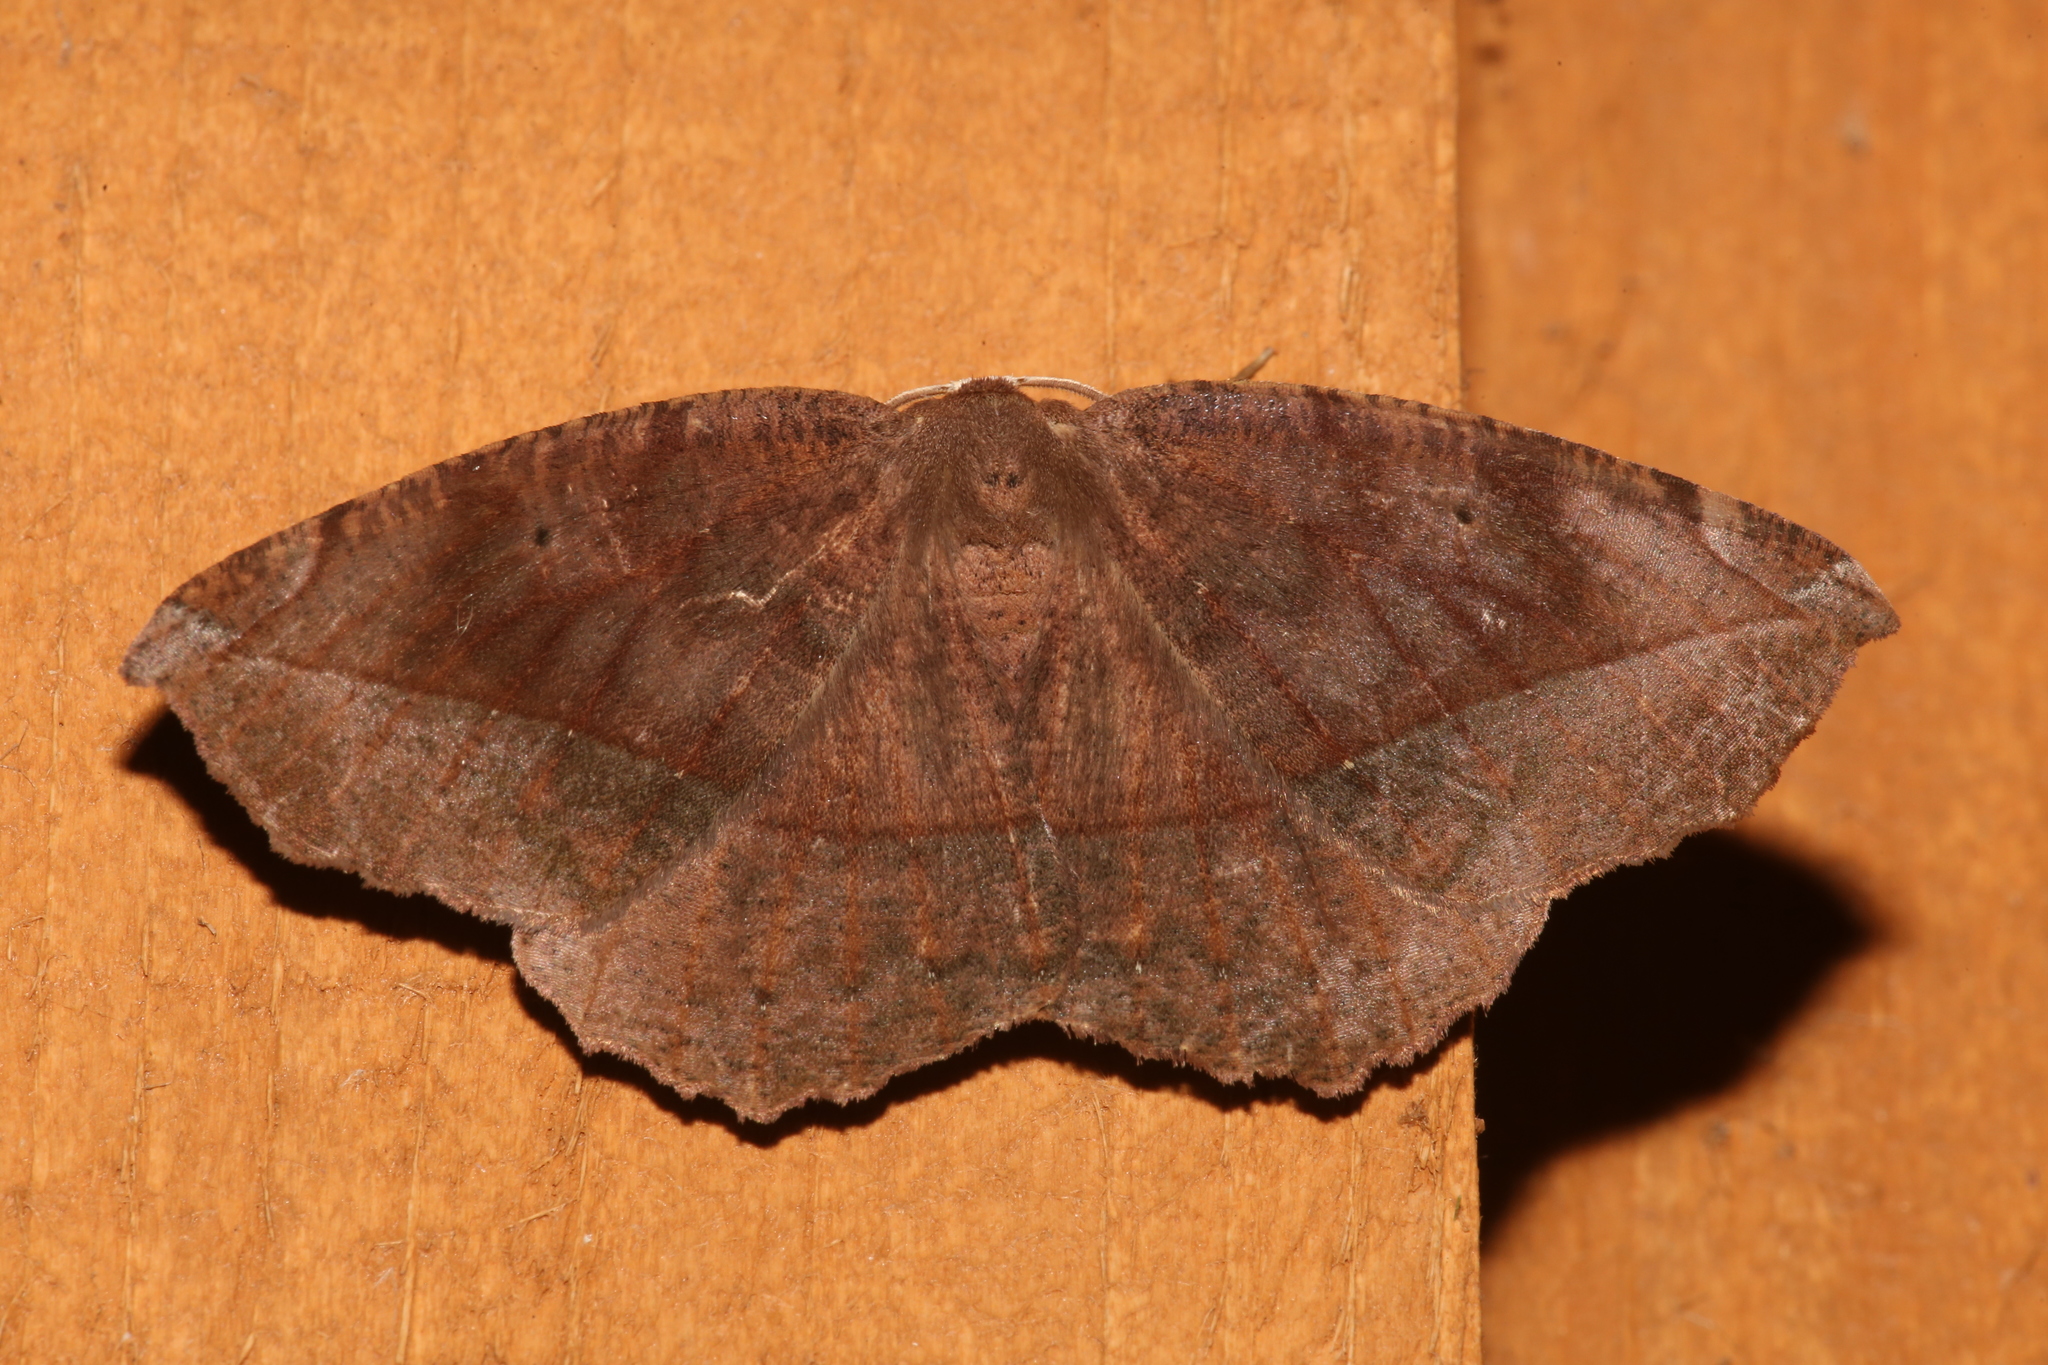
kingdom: Animalia
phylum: Arthropoda
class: Insecta
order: Lepidoptera
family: Geometridae
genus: Eutrapela
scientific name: Eutrapela clemataria
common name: Curved-toothed geometer
